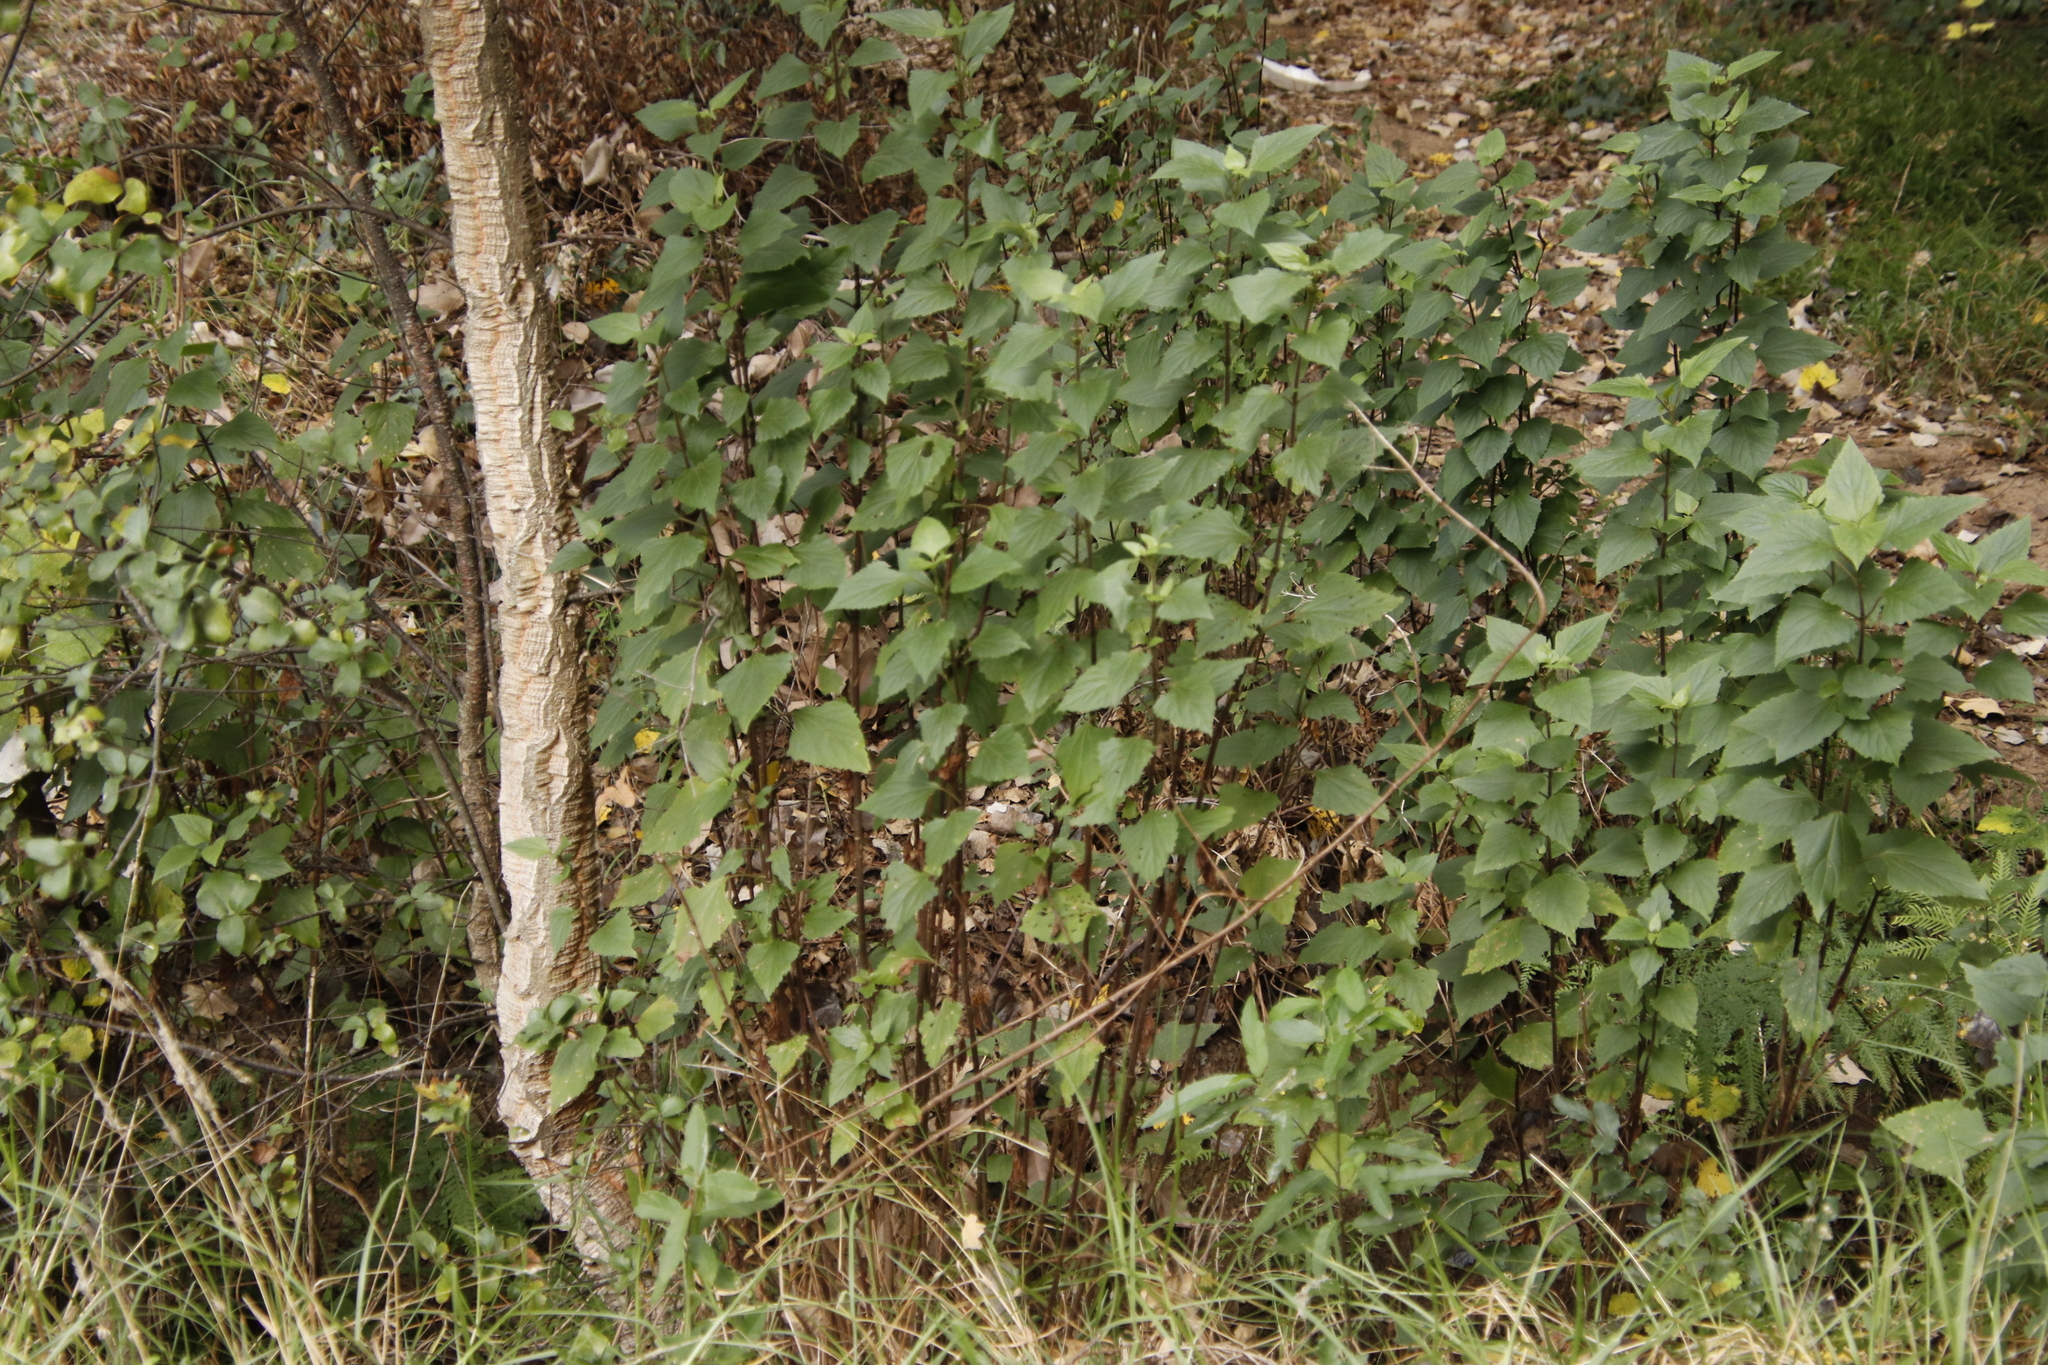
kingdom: Plantae
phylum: Tracheophyta
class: Magnoliopsida
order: Asterales
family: Asteraceae
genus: Ageratina
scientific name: Ageratina adenophora
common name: Sticky snakeroot
